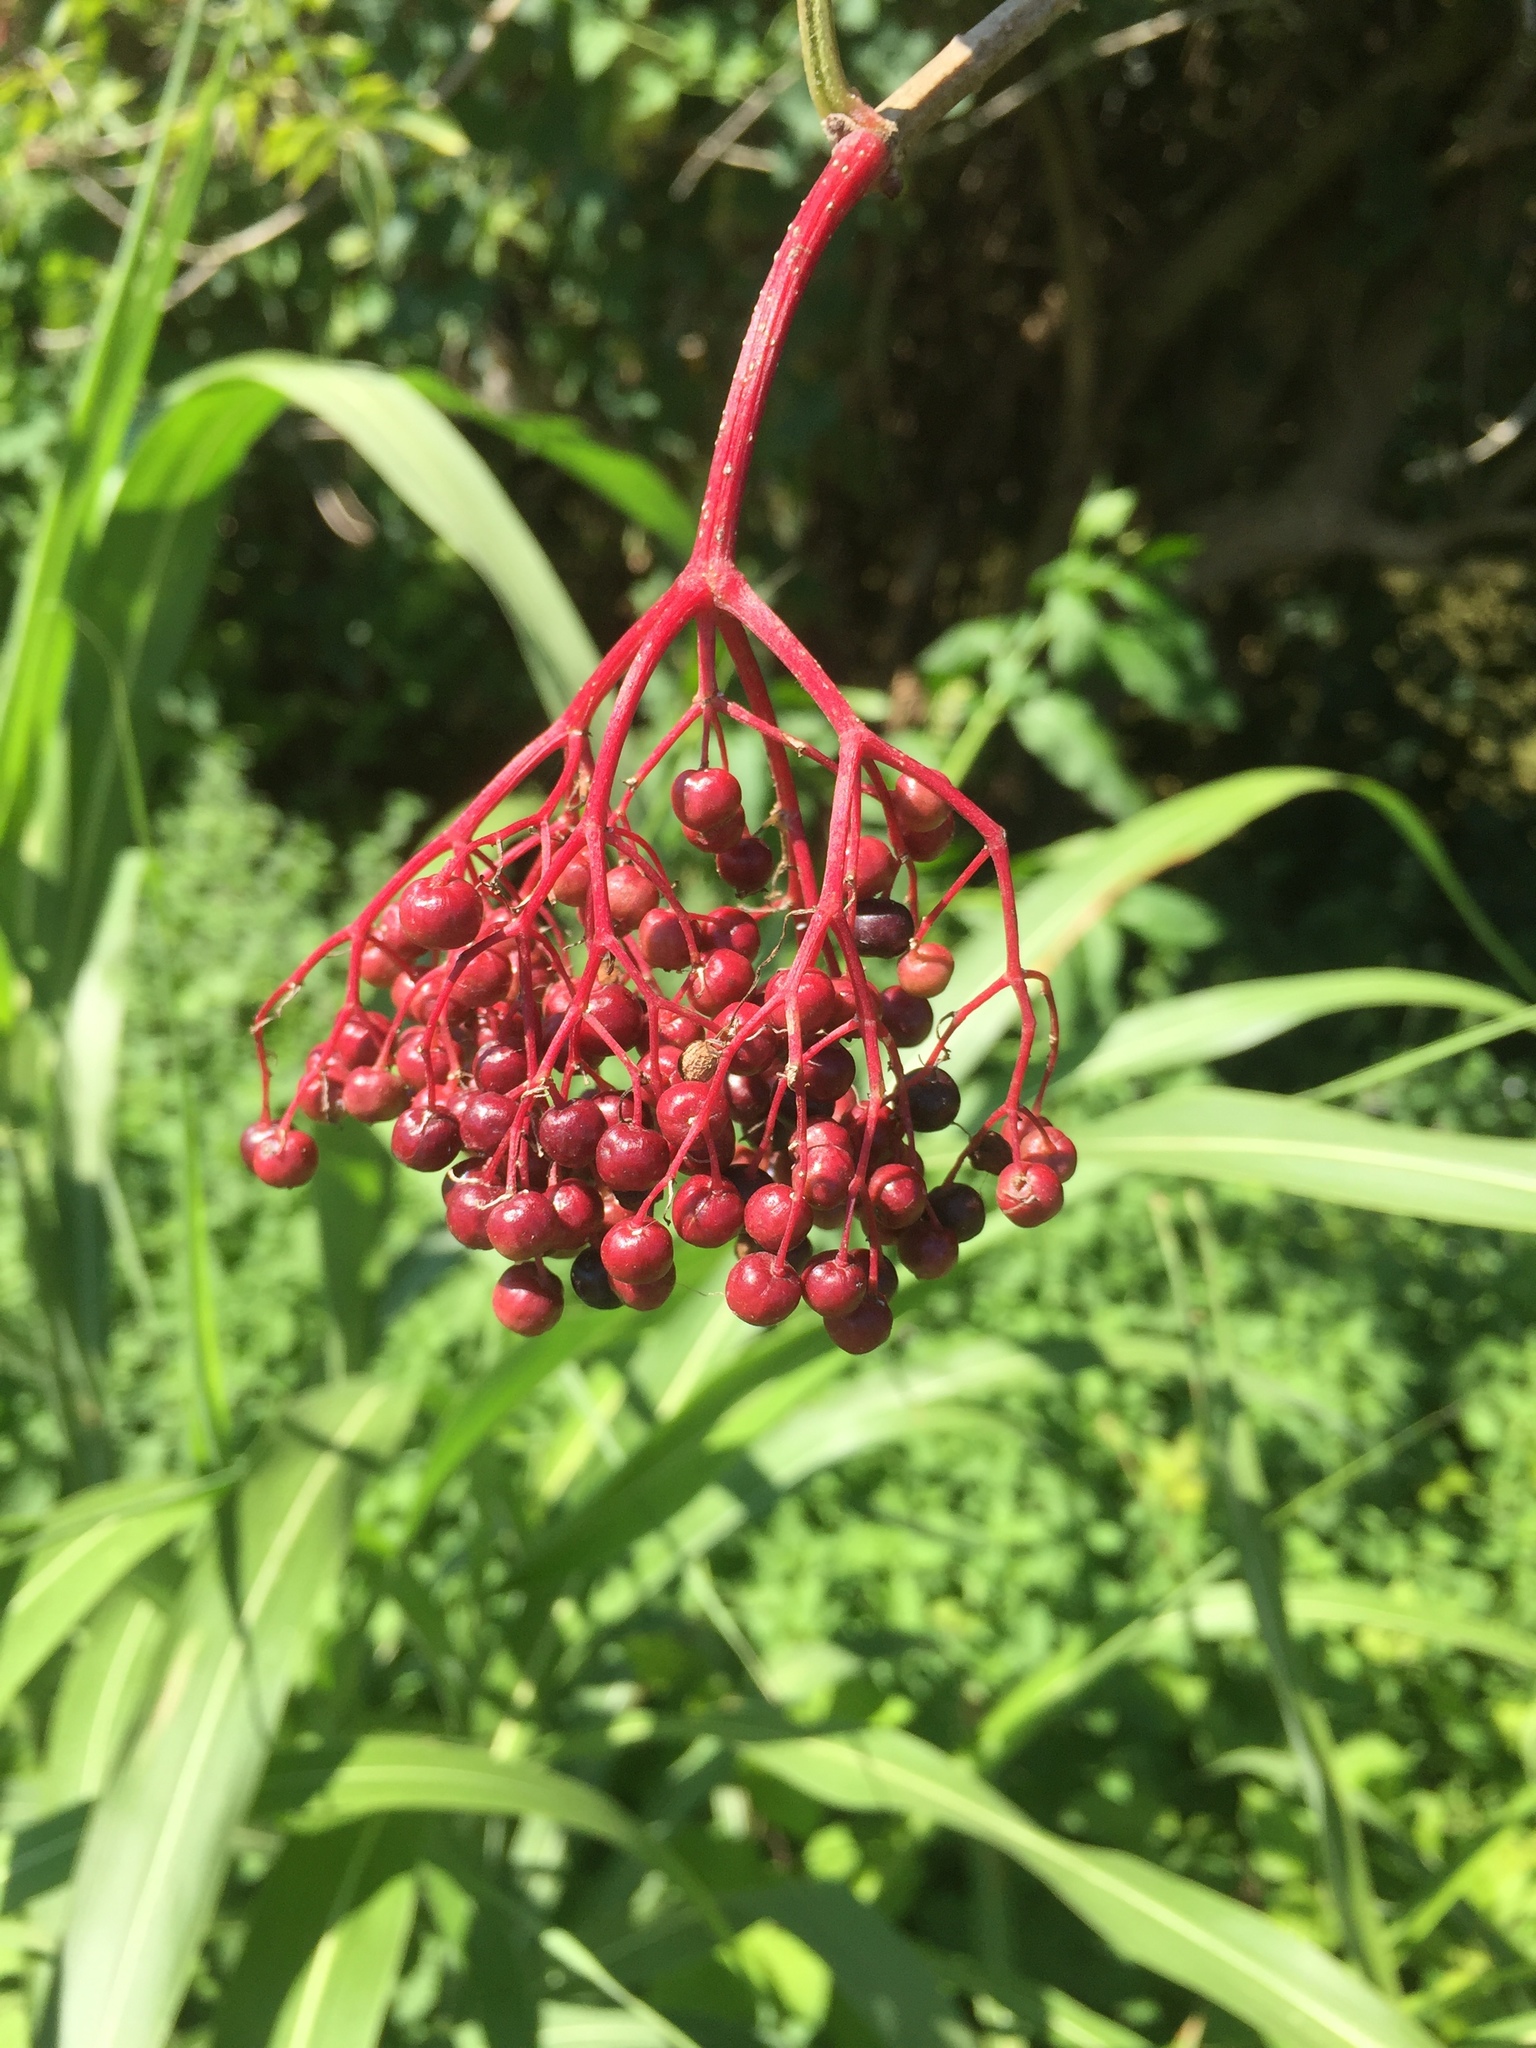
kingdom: Plantae
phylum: Tracheophyta
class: Magnoliopsida
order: Dipsacales
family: Viburnaceae
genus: Sambucus
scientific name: Sambucus nigra
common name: Elder
